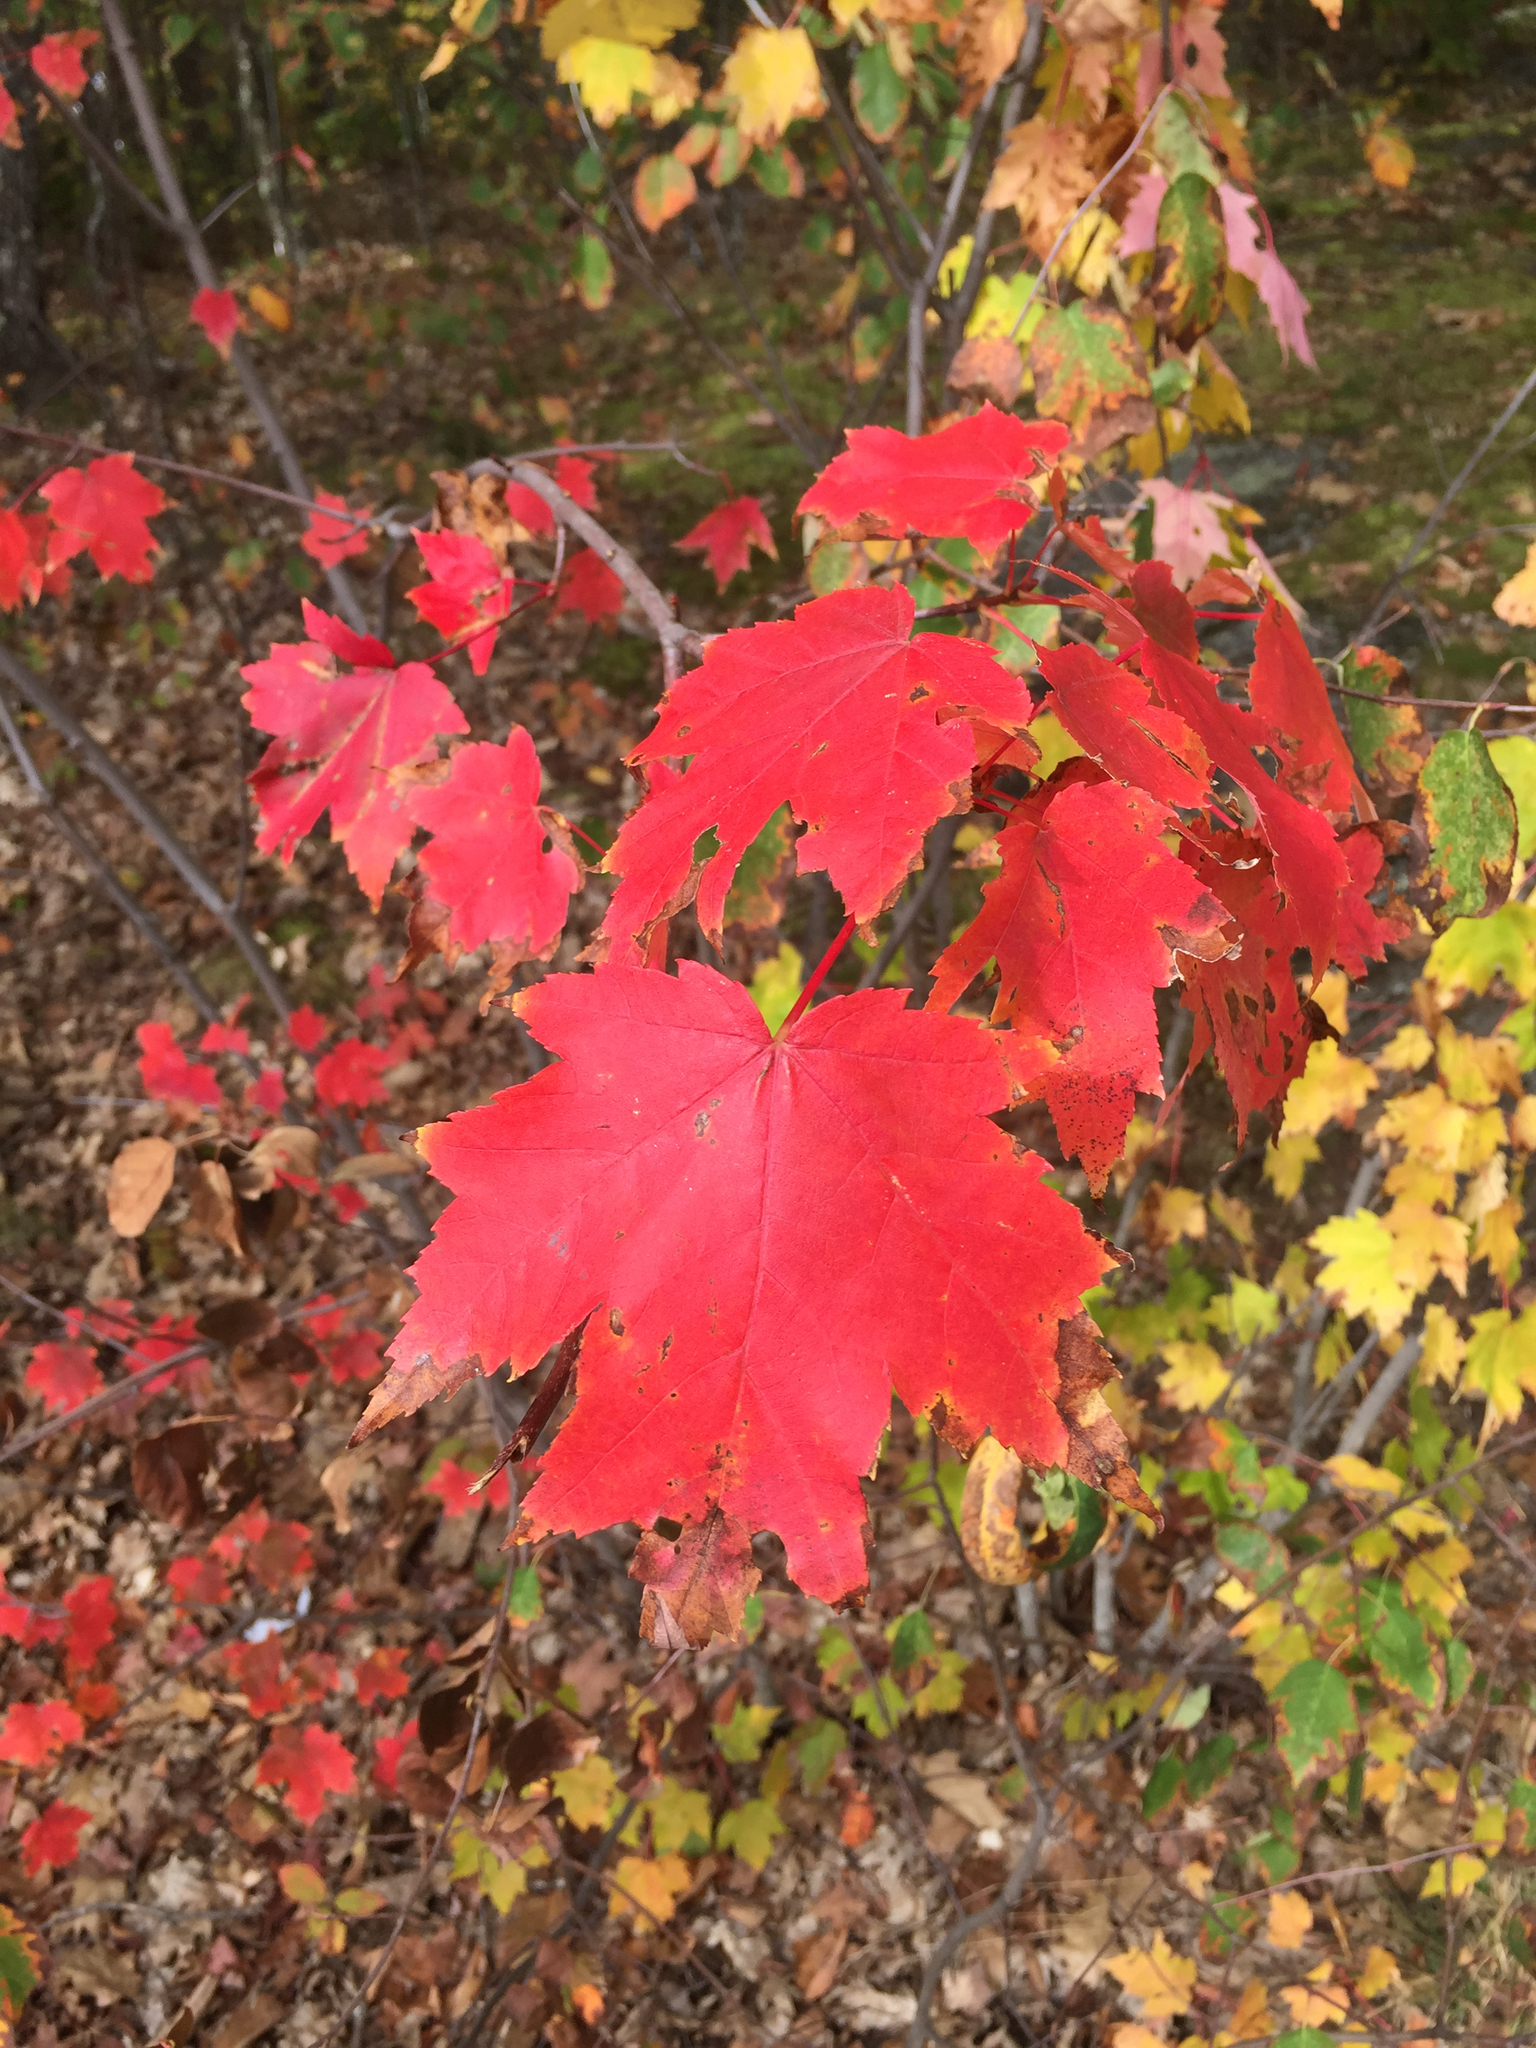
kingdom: Plantae
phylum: Tracheophyta
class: Magnoliopsida
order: Sapindales
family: Sapindaceae
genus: Acer
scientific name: Acer rubrum
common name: Red maple
